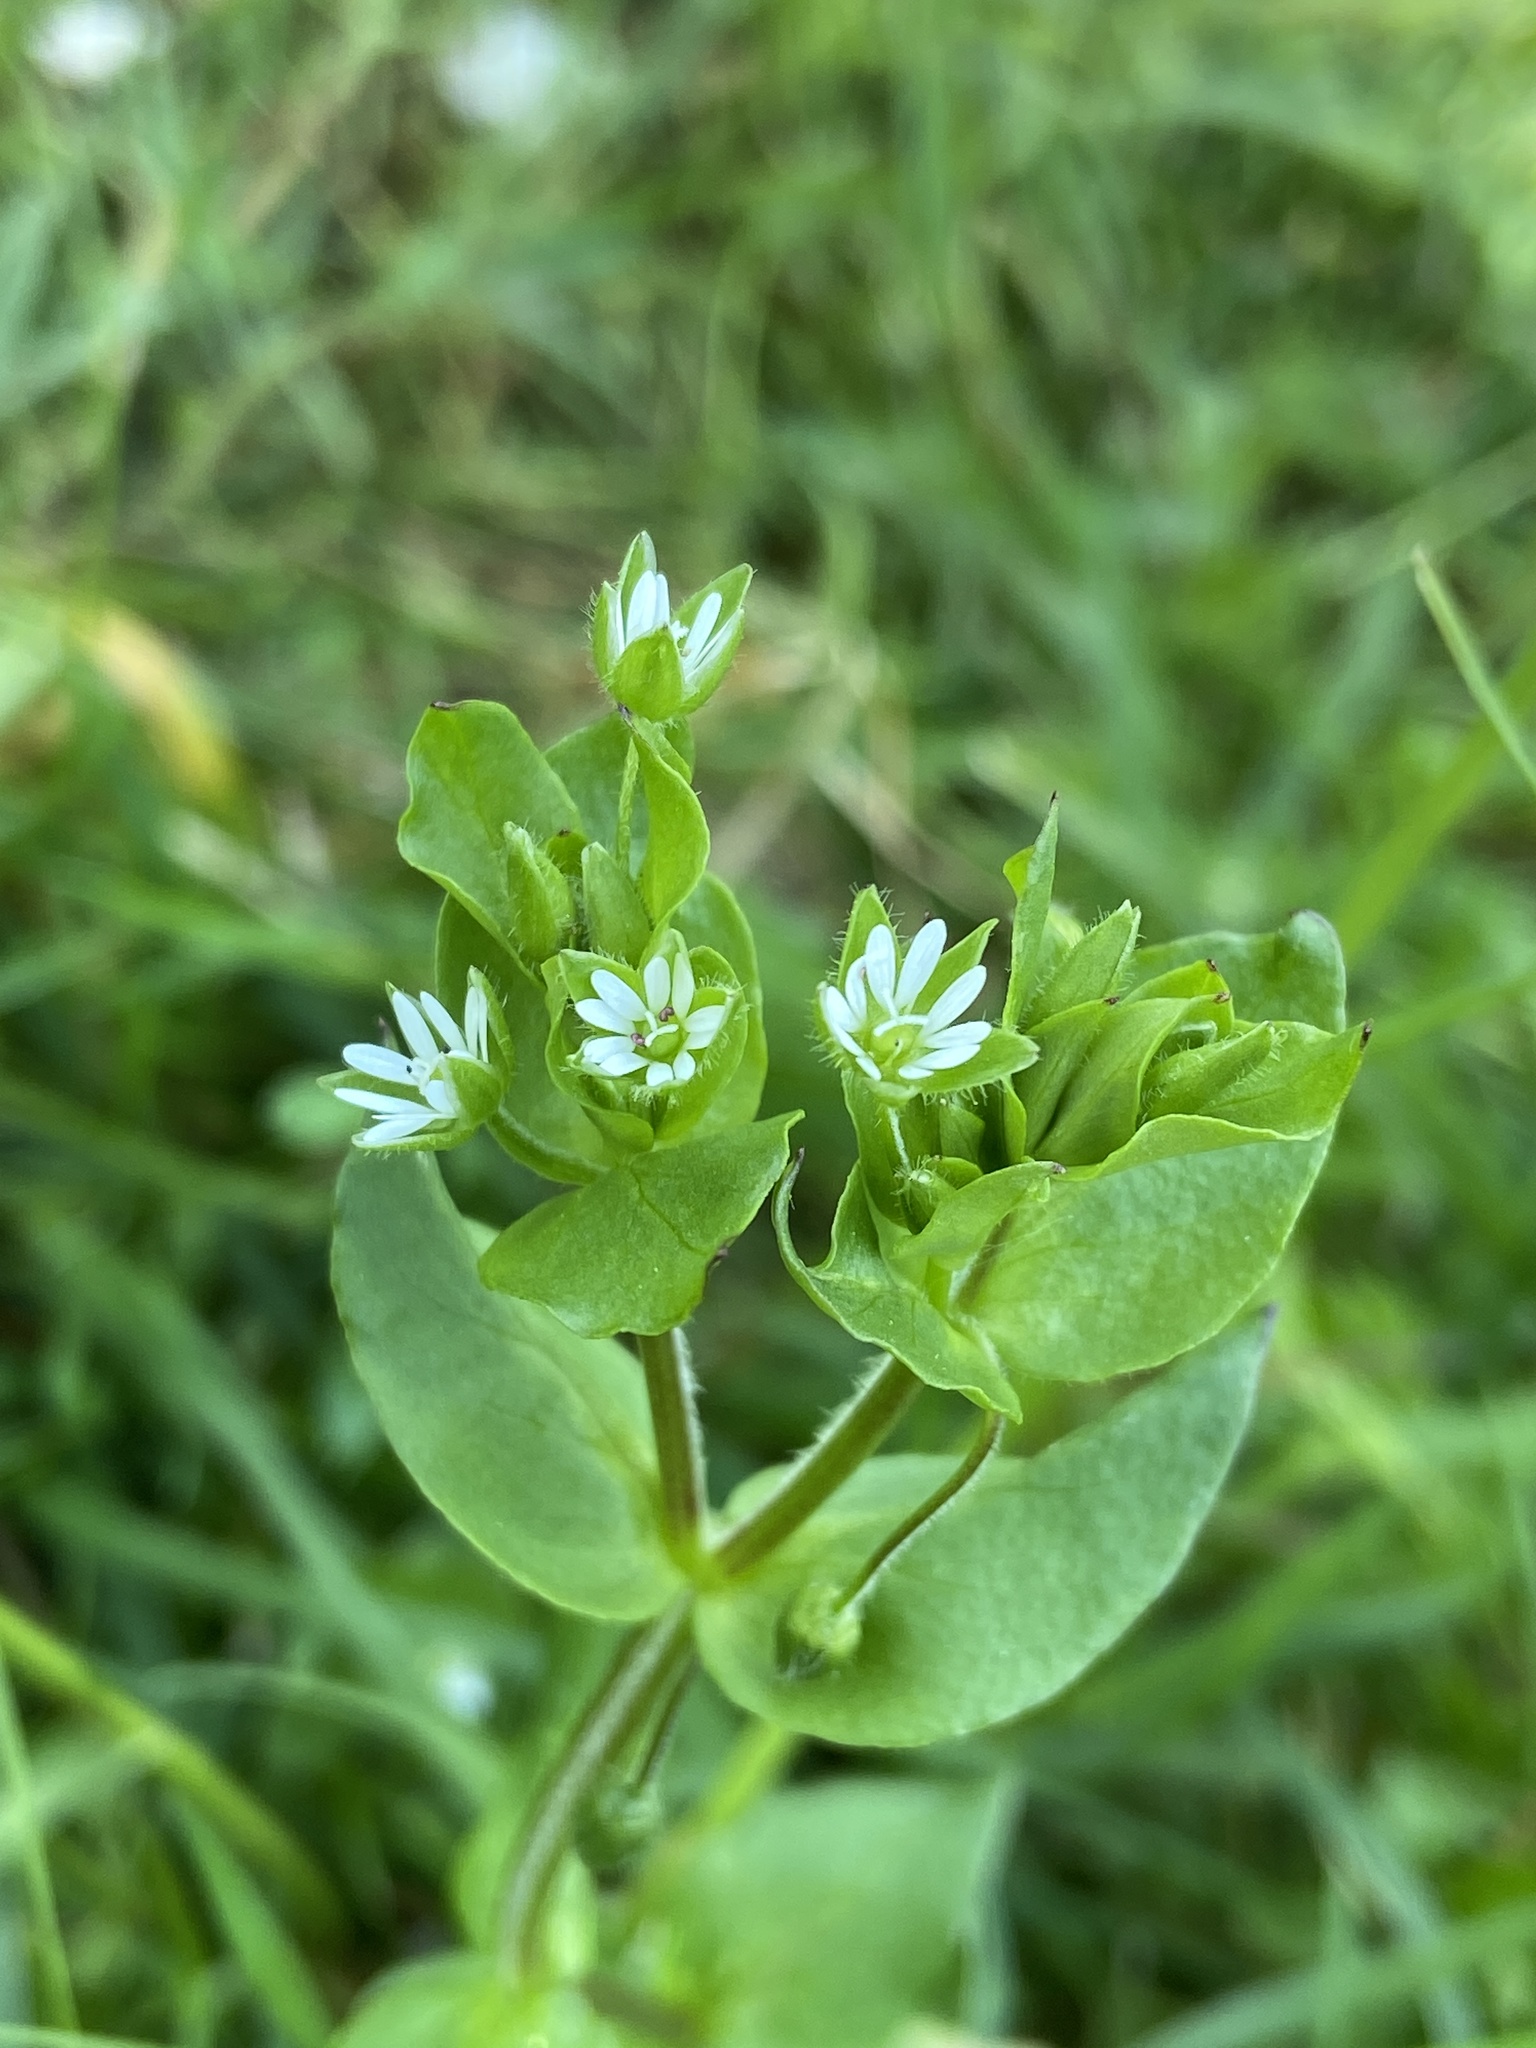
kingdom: Plantae
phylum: Tracheophyta
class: Magnoliopsida
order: Caryophyllales
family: Caryophyllaceae
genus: Stellaria
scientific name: Stellaria media
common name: Common chickweed
